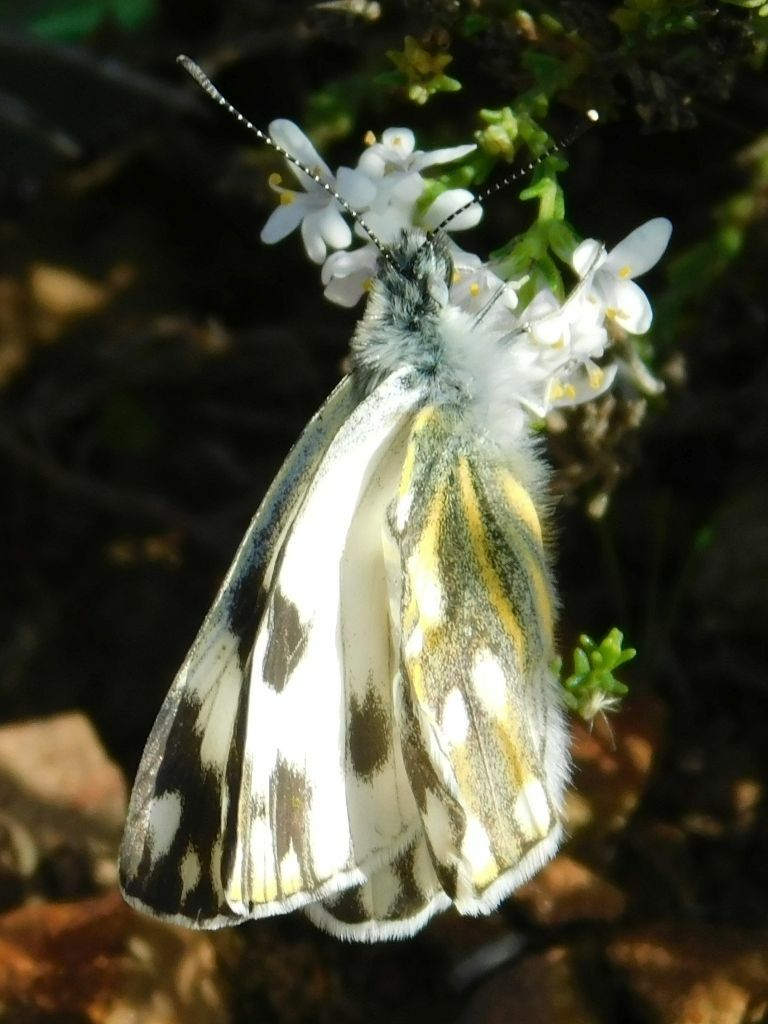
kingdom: Animalia
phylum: Arthropoda
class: Insecta
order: Lepidoptera
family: Pieridae
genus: Pontia
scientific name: Pontia helice
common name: Meadow white
